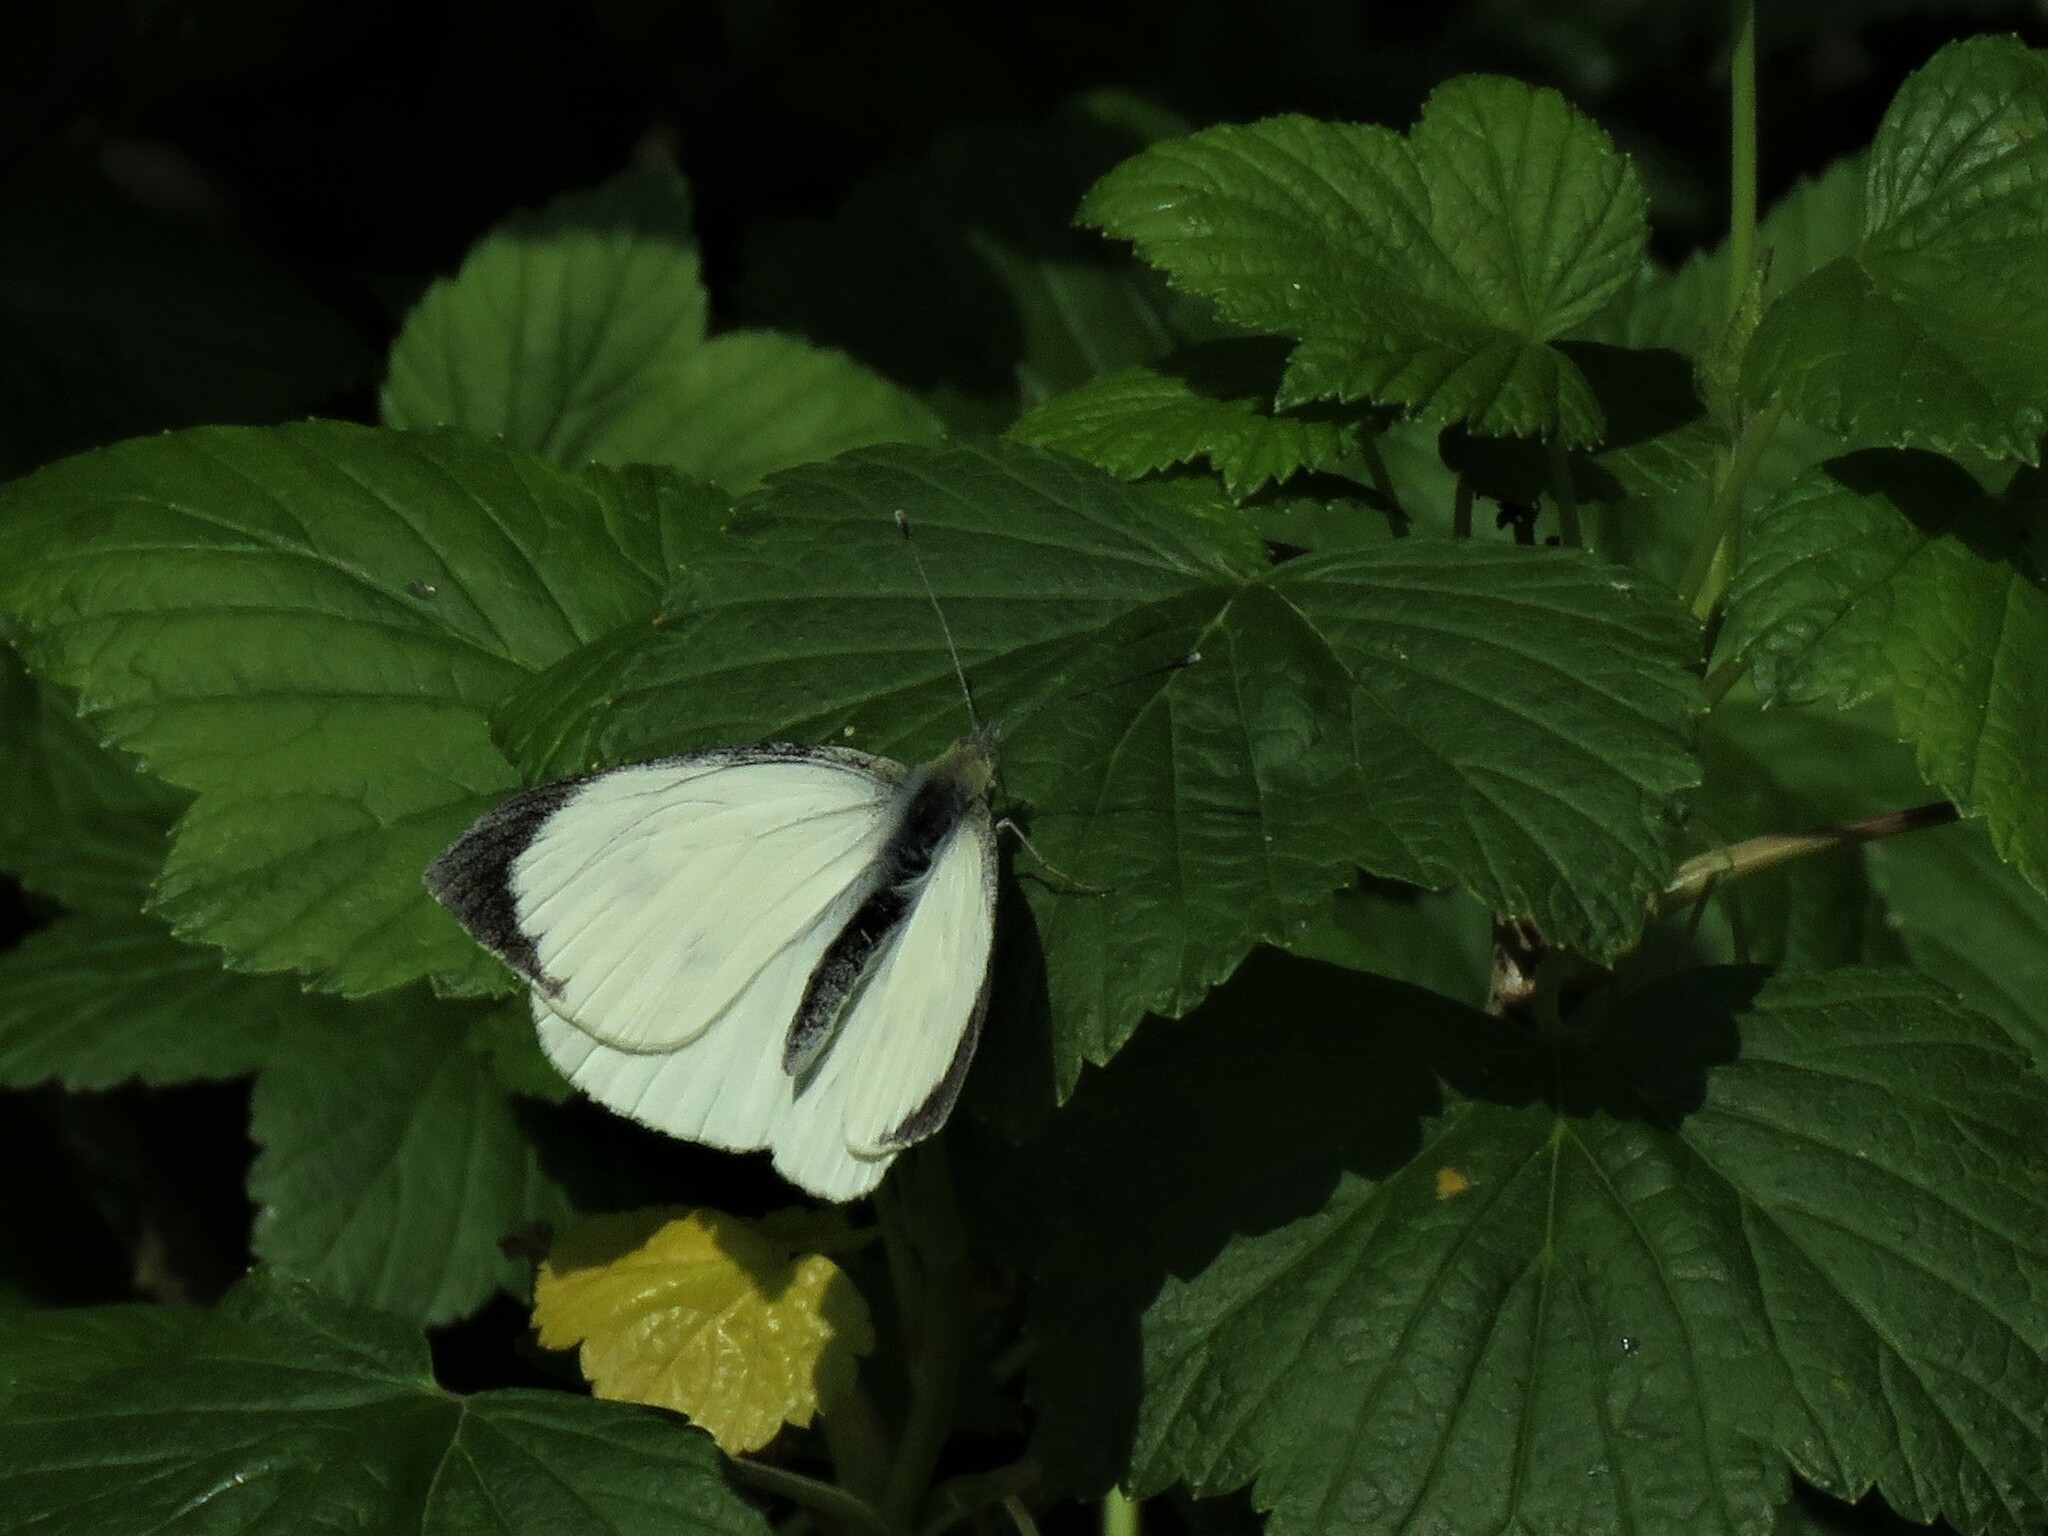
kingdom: Animalia
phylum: Arthropoda
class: Insecta
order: Lepidoptera
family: Pieridae
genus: Pieris
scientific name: Pieris brassicae
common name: Large white
